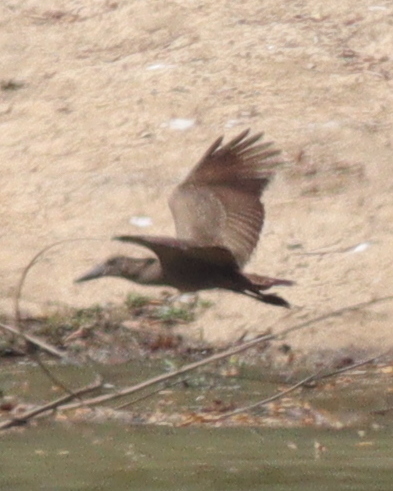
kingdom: Animalia
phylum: Chordata
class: Aves
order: Pelecaniformes
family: Scopidae
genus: Scopus
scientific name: Scopus umbretta
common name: Hamerkop
